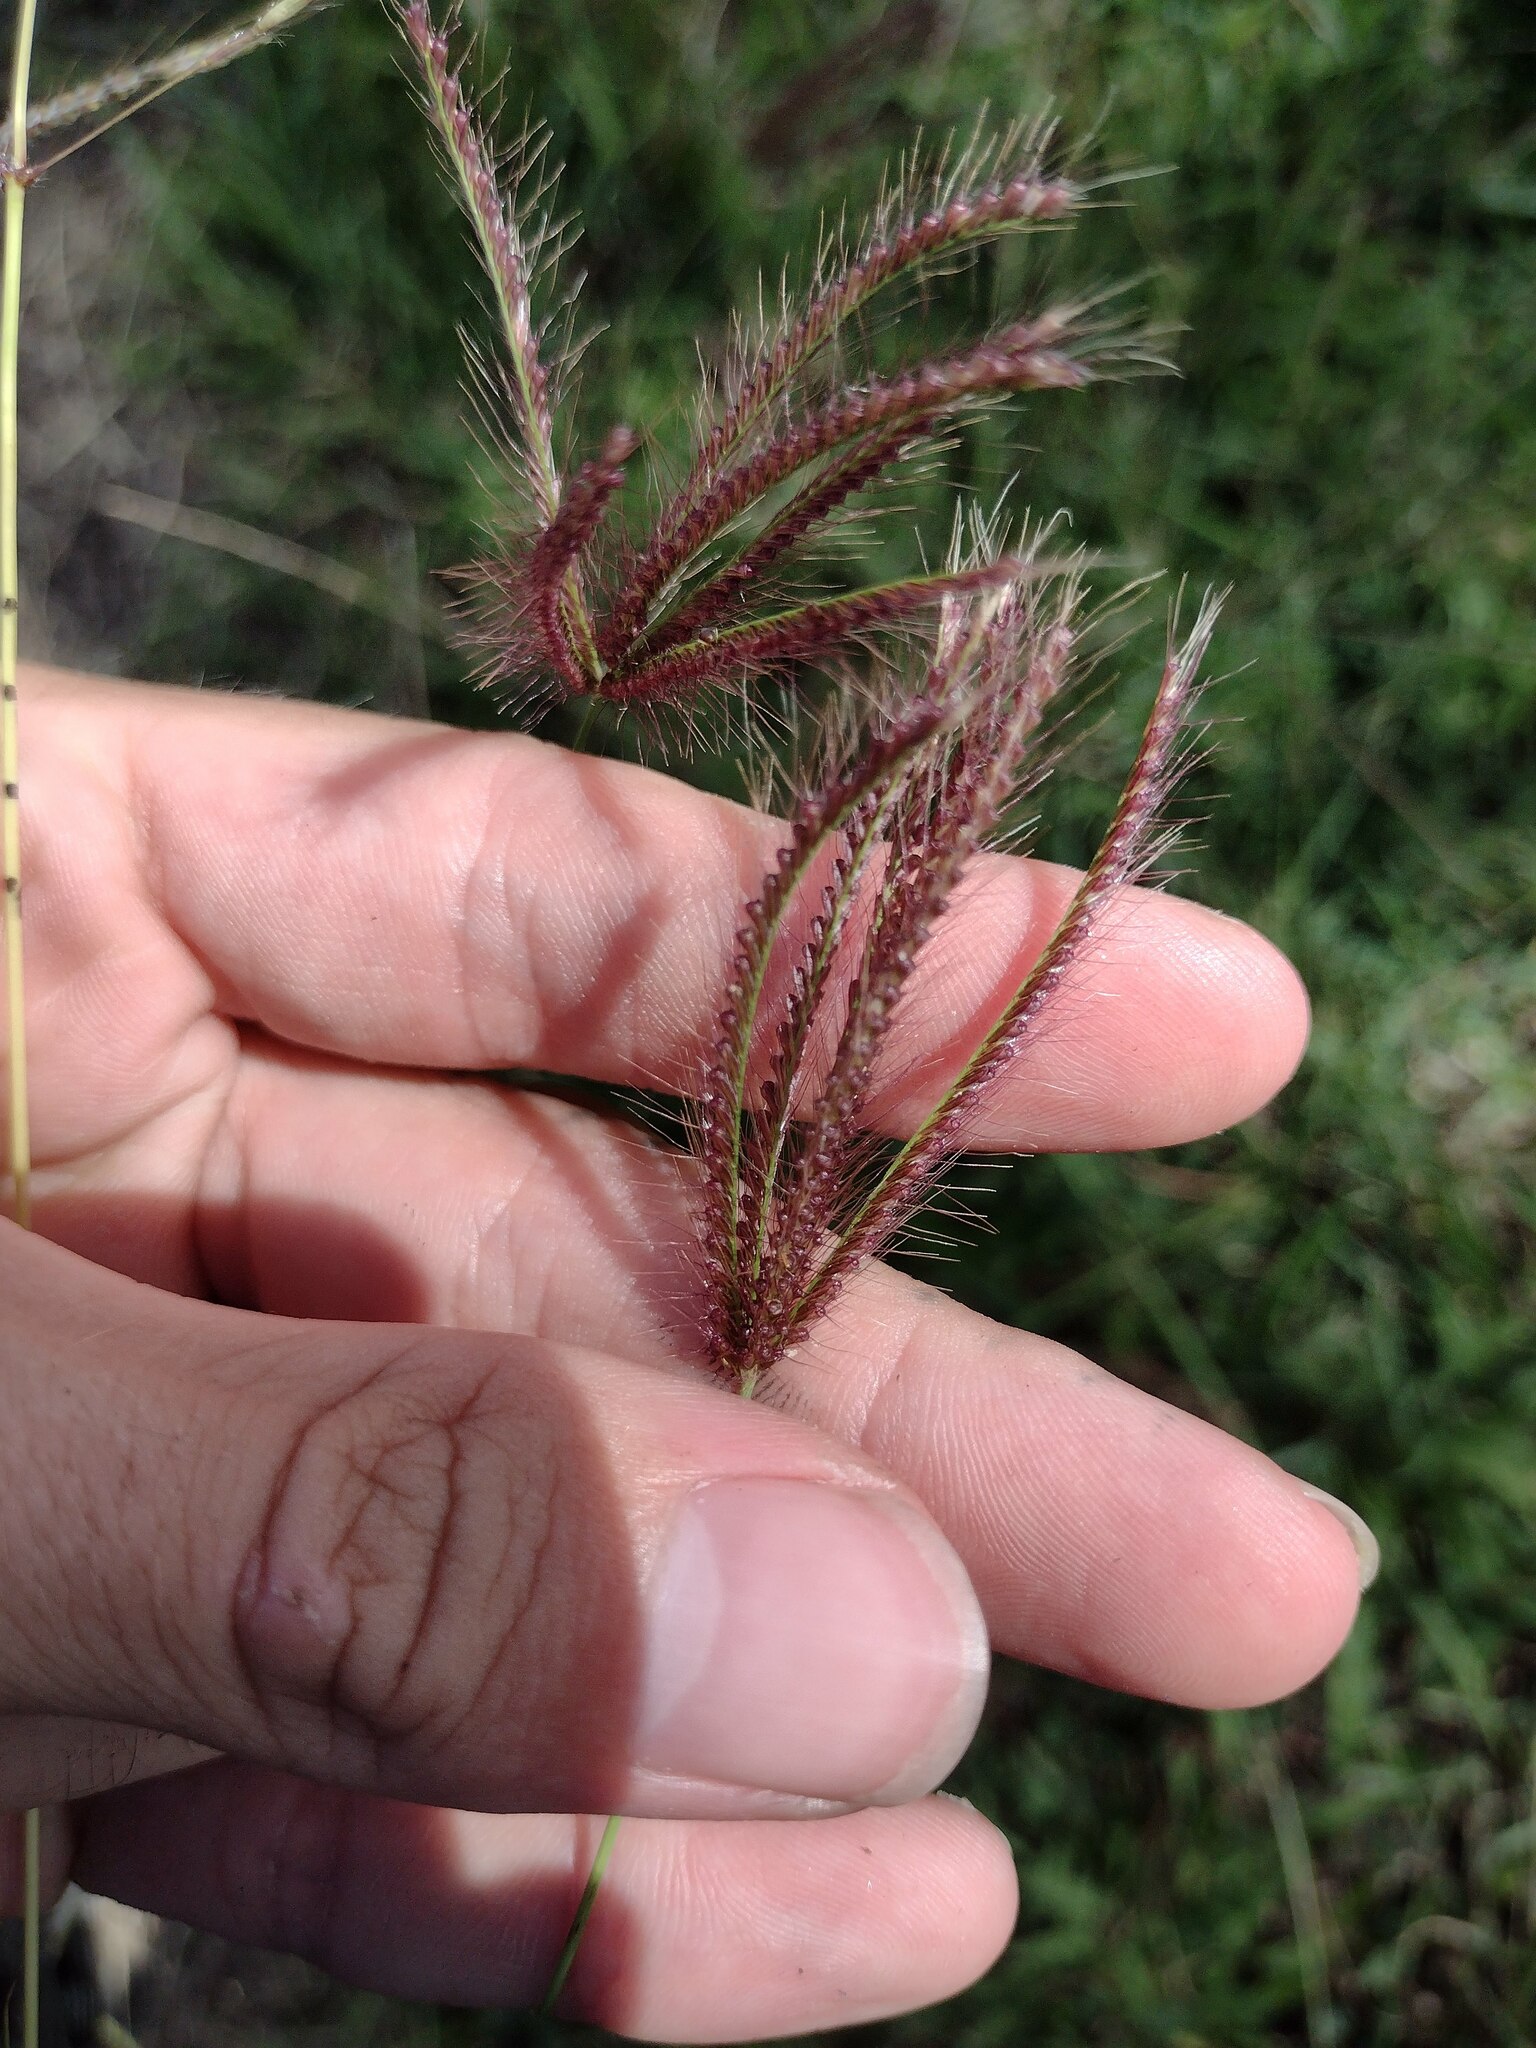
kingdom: Plantae
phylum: Tracheophyta
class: Liliopsida
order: Poales
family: Poaceae
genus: Chloris
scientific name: Chloris barbata
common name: Swollen fingergrass
